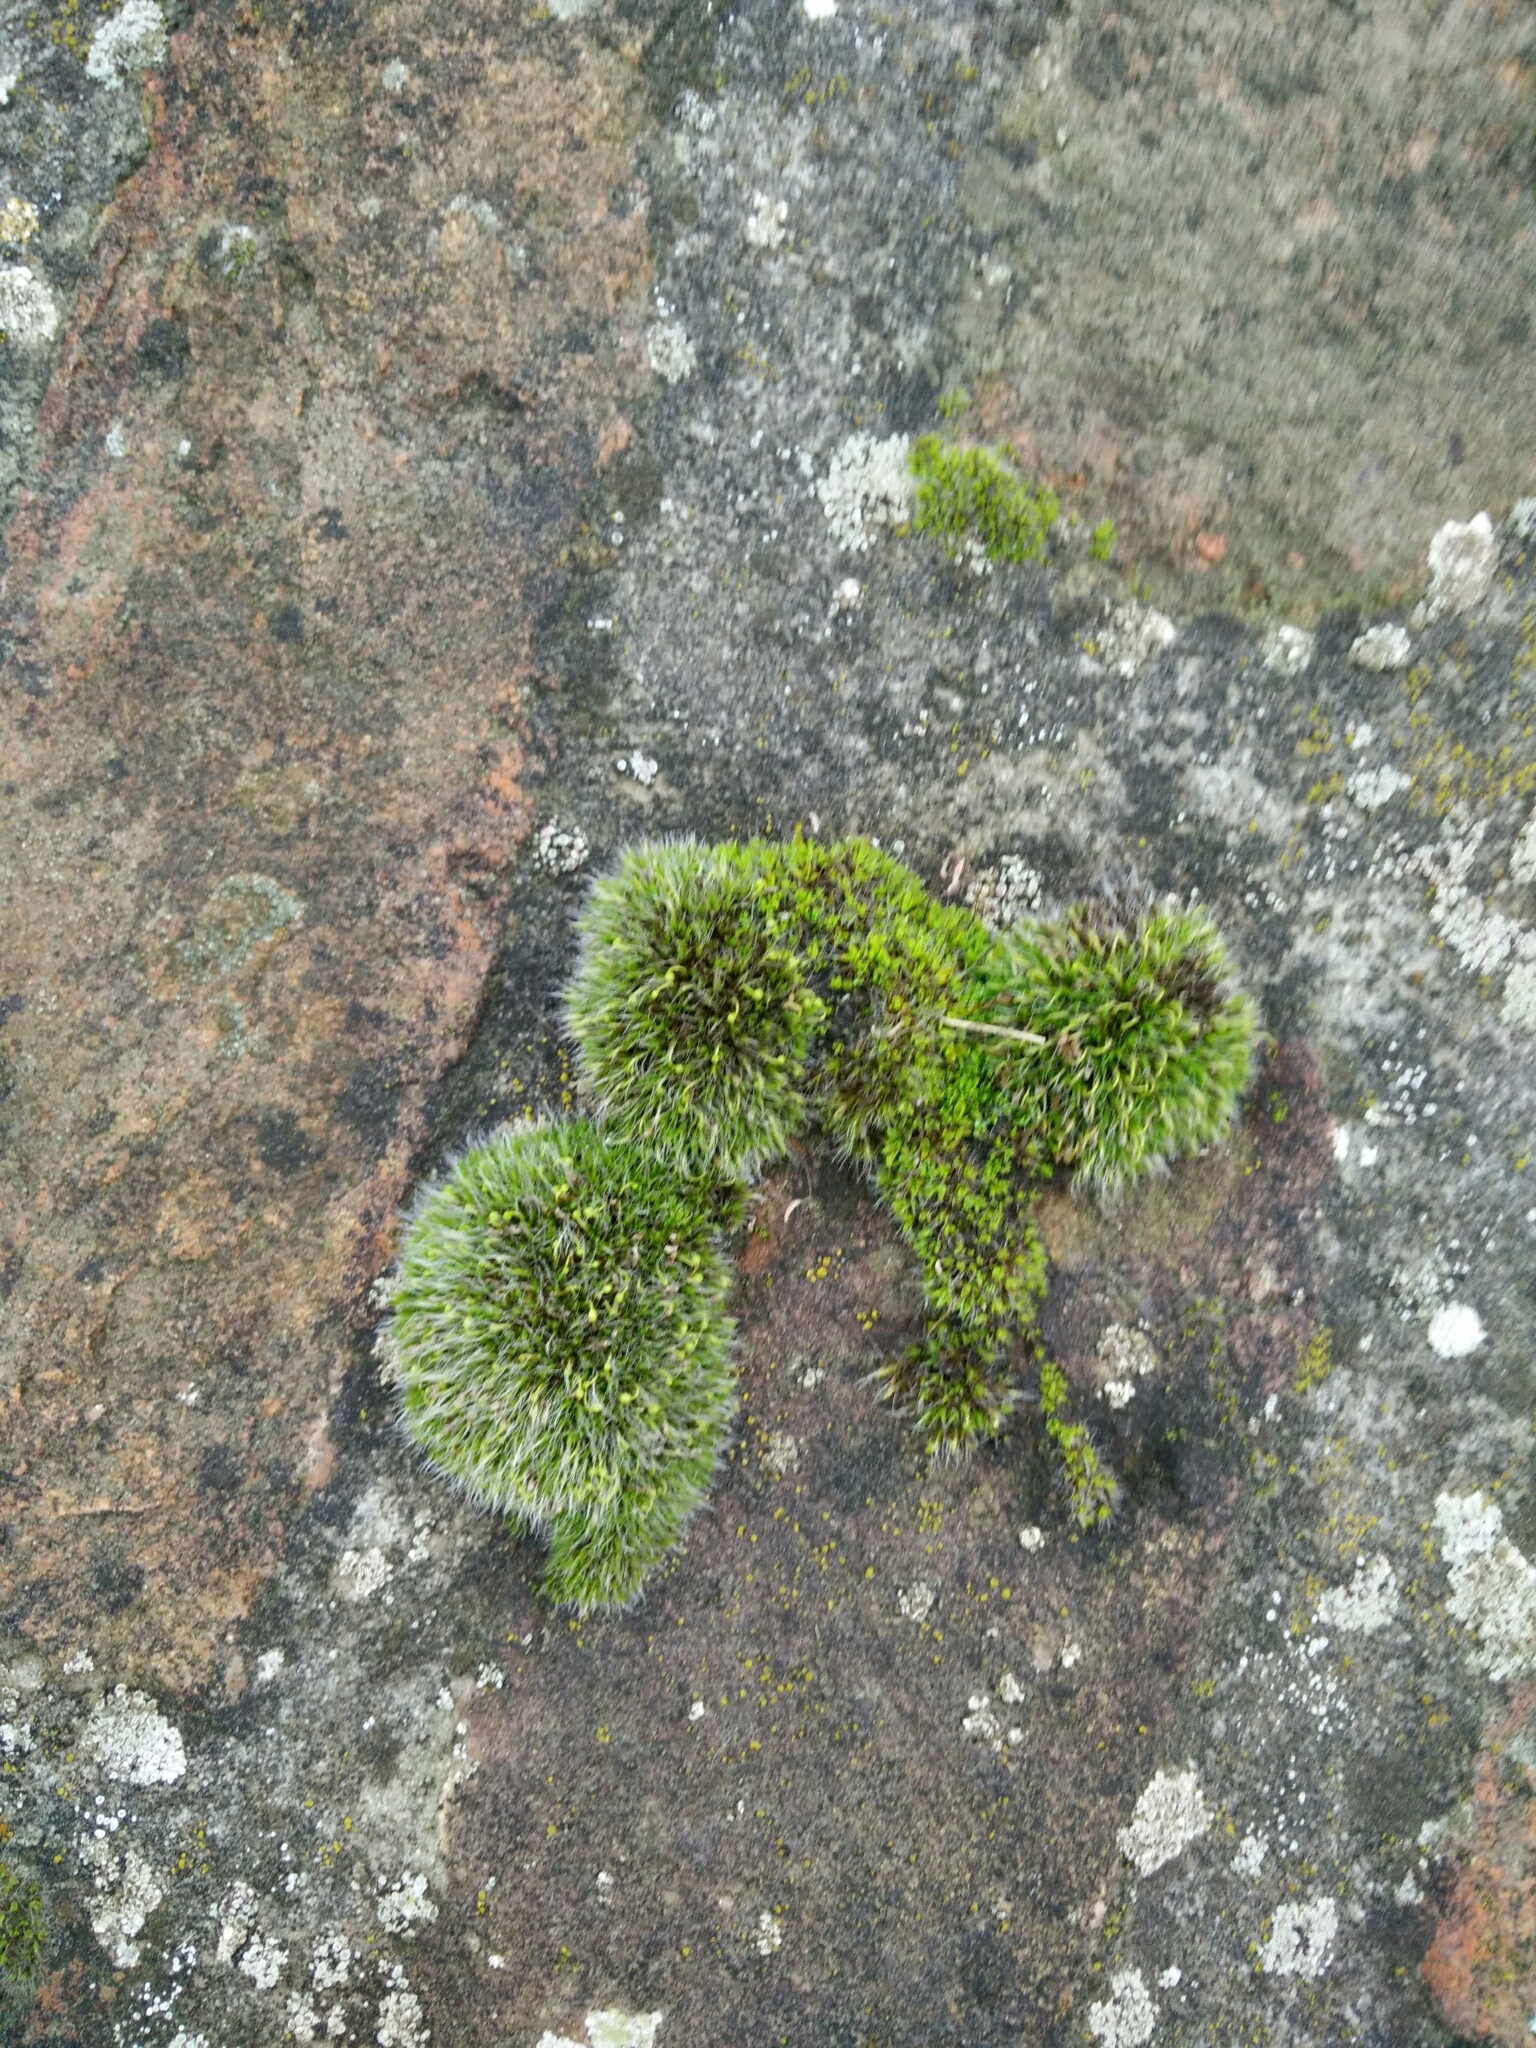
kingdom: Plantae
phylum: Bryophyta
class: Bryopsida
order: Grimmiales
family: Grimmiaceae
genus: Grimmia
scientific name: Grimmia pulvinata
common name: Grey-cushioned grimmia
